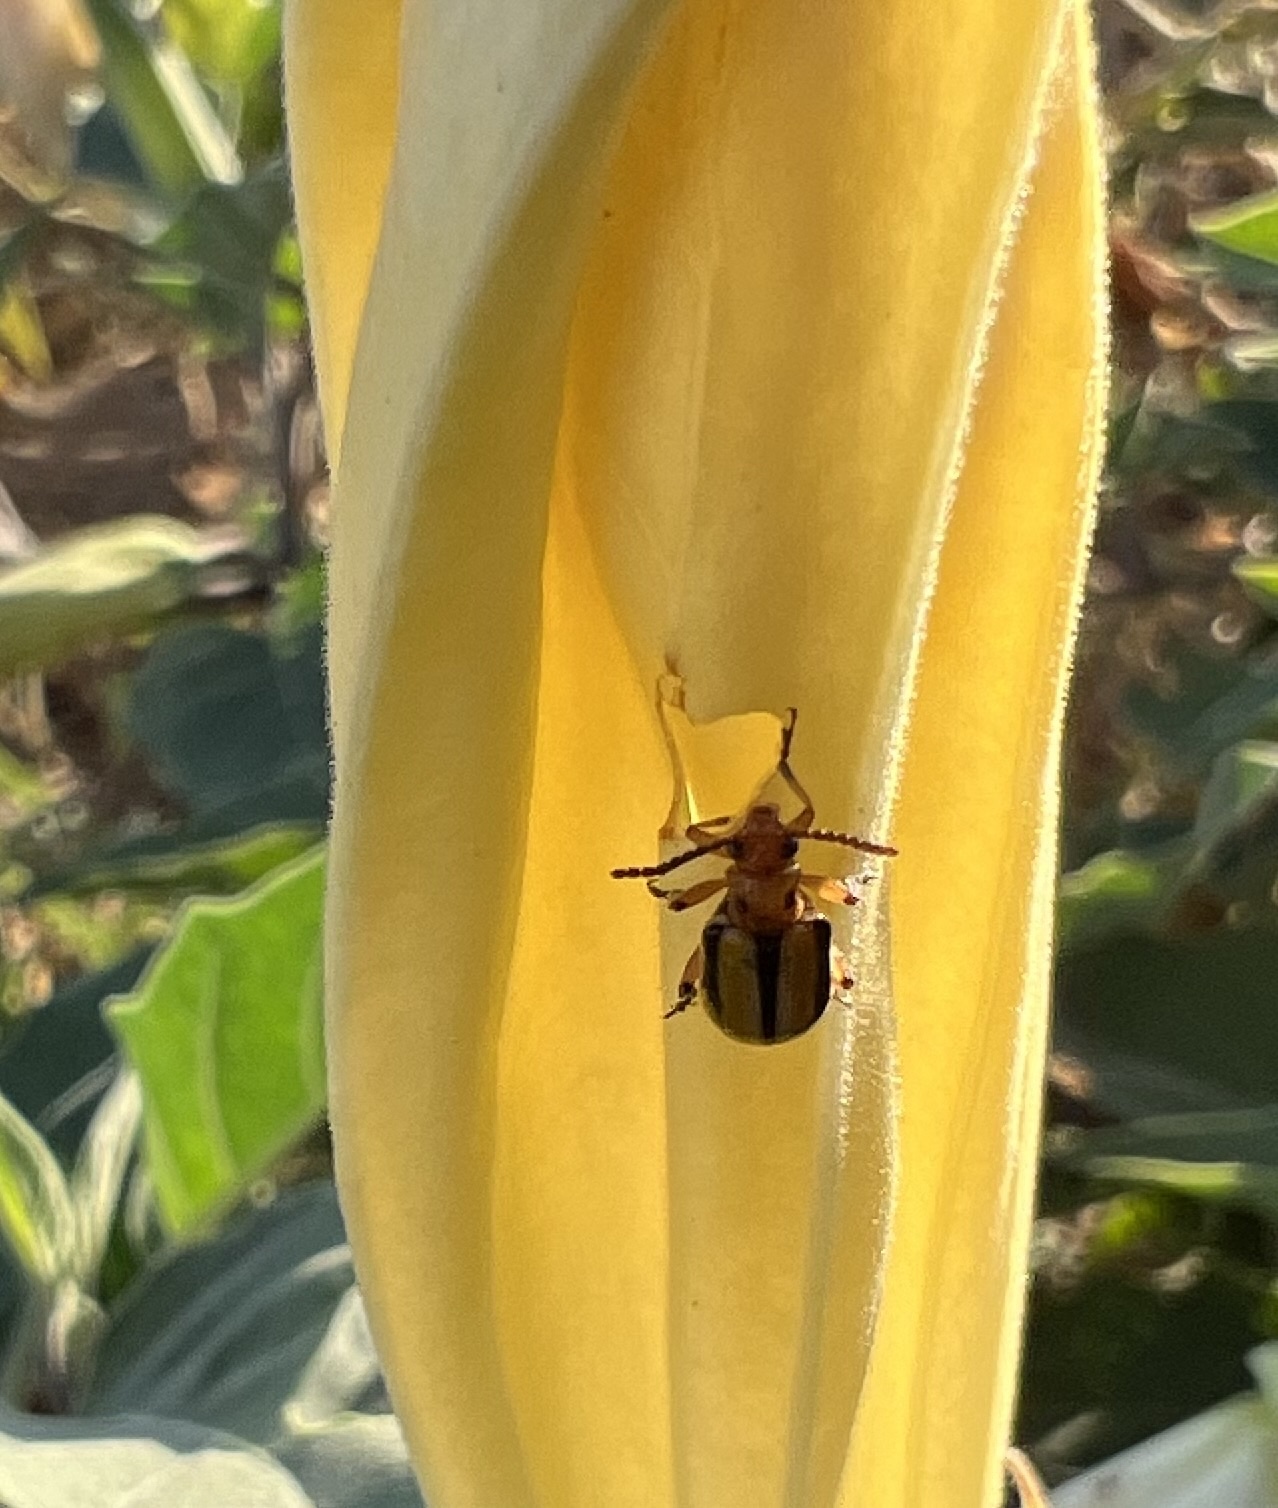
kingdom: Animalia
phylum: Arthropoda
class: Insecta
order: Coleoptera
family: Chrysomelidae
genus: Lema
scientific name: Lema daturaphila
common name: Leaf beetle
